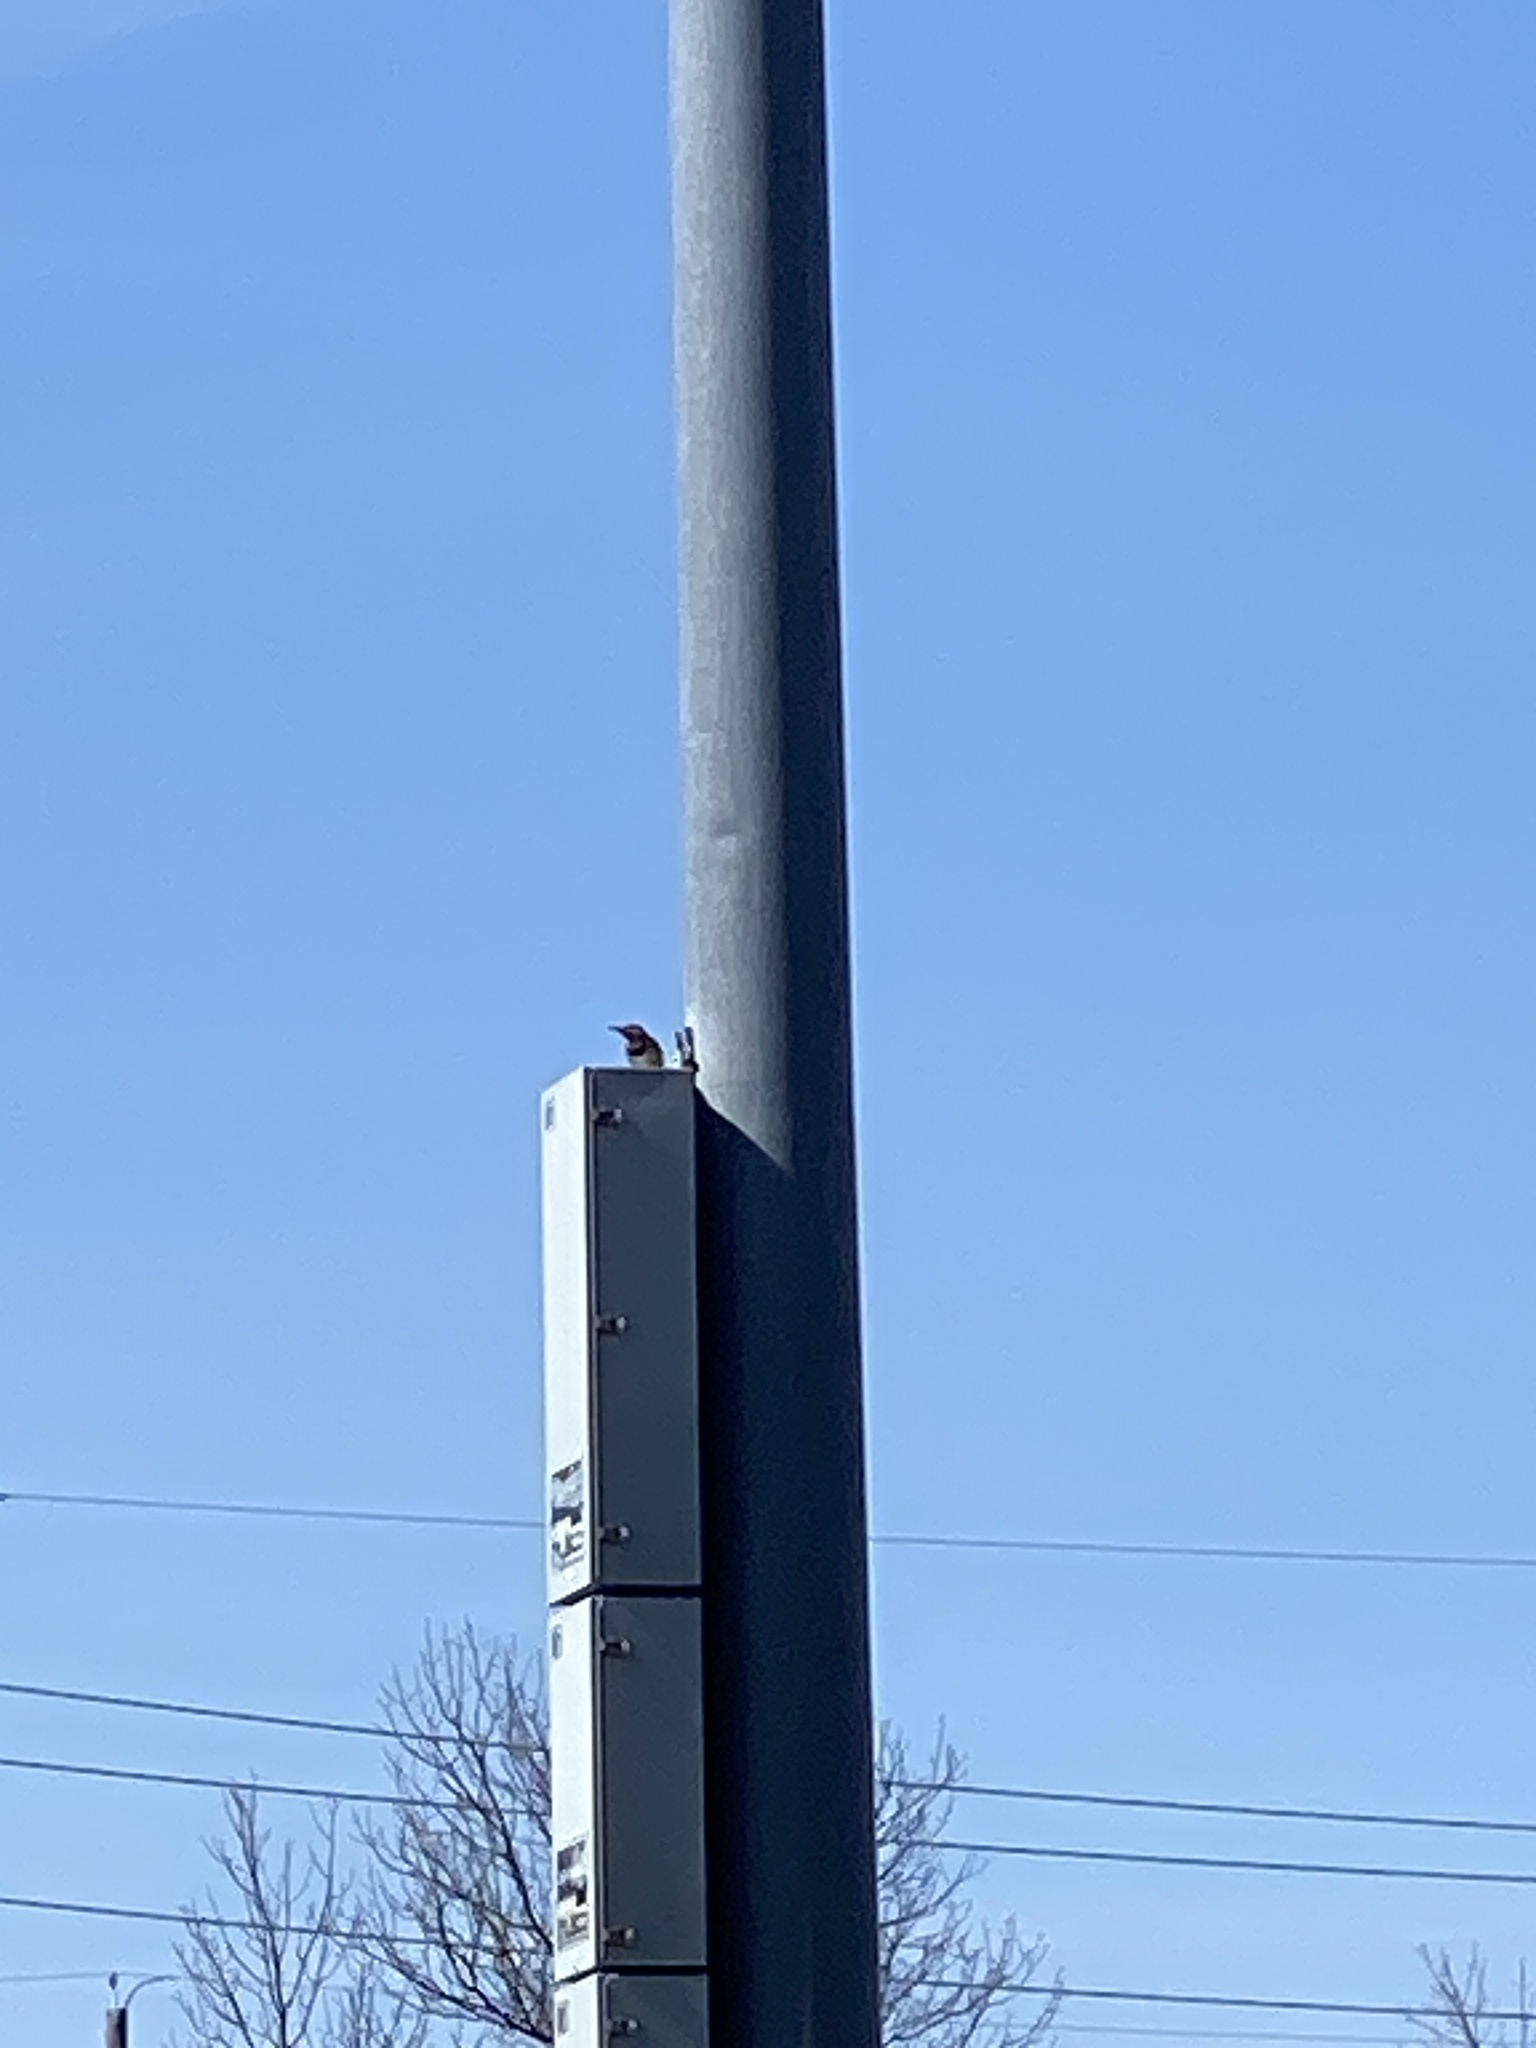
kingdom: Animalia
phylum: Chordata
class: Aves
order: Piciformes
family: Picidae
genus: Colaptes
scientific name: Colaptes auratus
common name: Northern flicker
